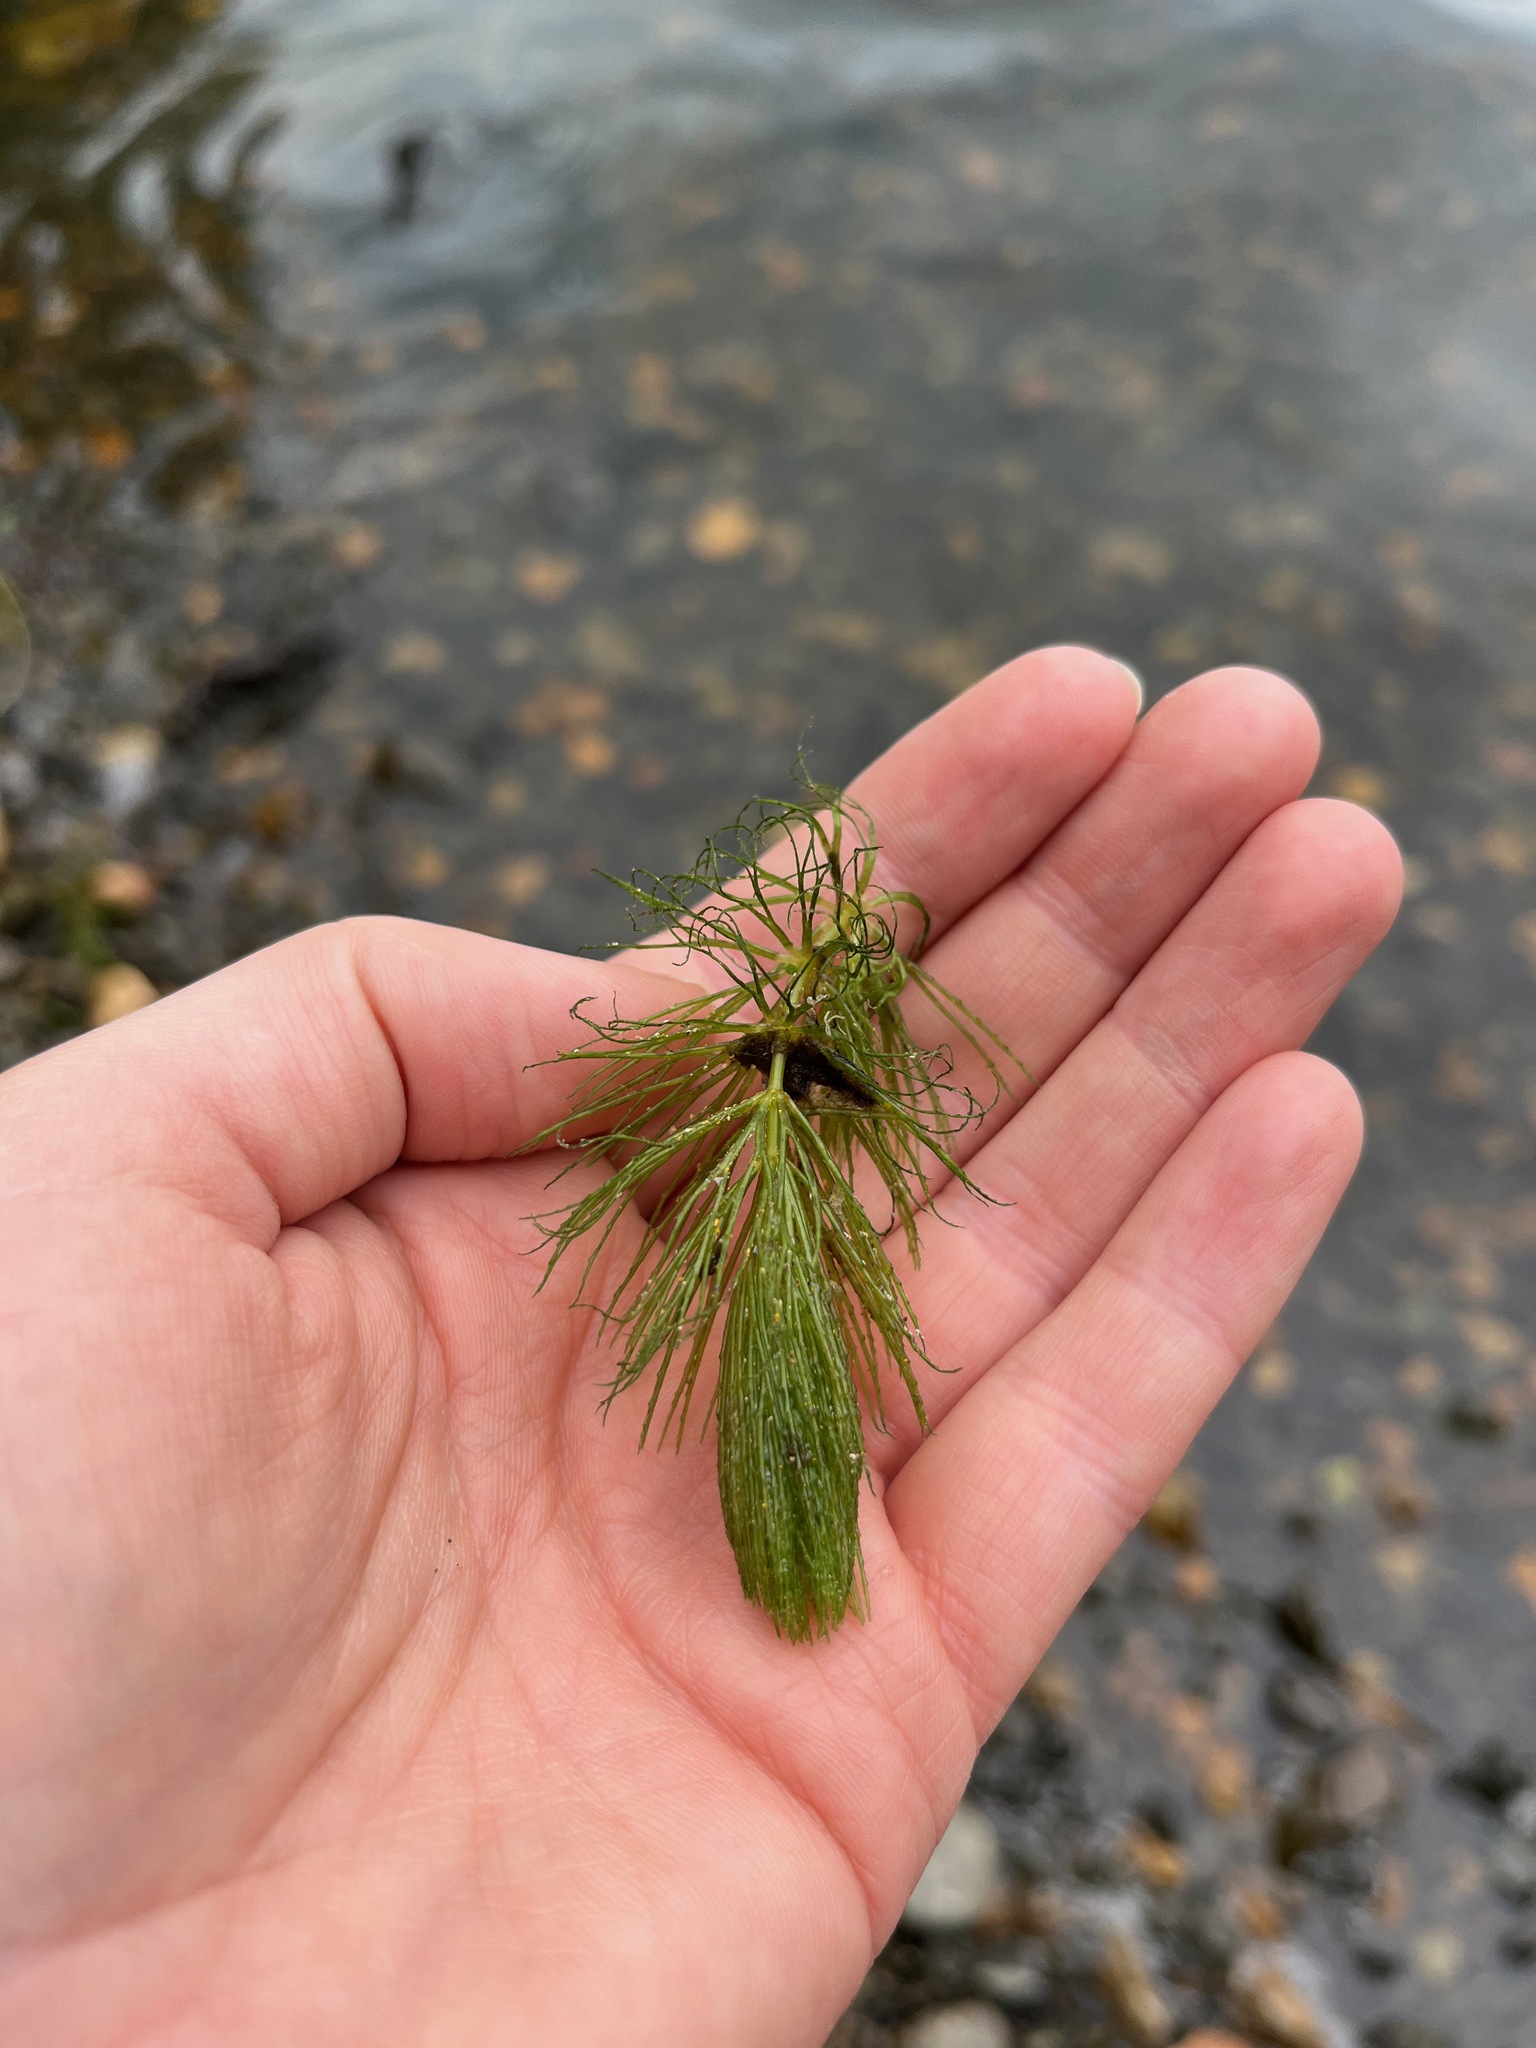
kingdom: Plantae
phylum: Tracheophyta
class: Magnoliopsida
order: Ceratophyllales
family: Ceratophyllaceae
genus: Ceratophyllum
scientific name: Ceratophyllum demersum
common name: Rigid hornwort
